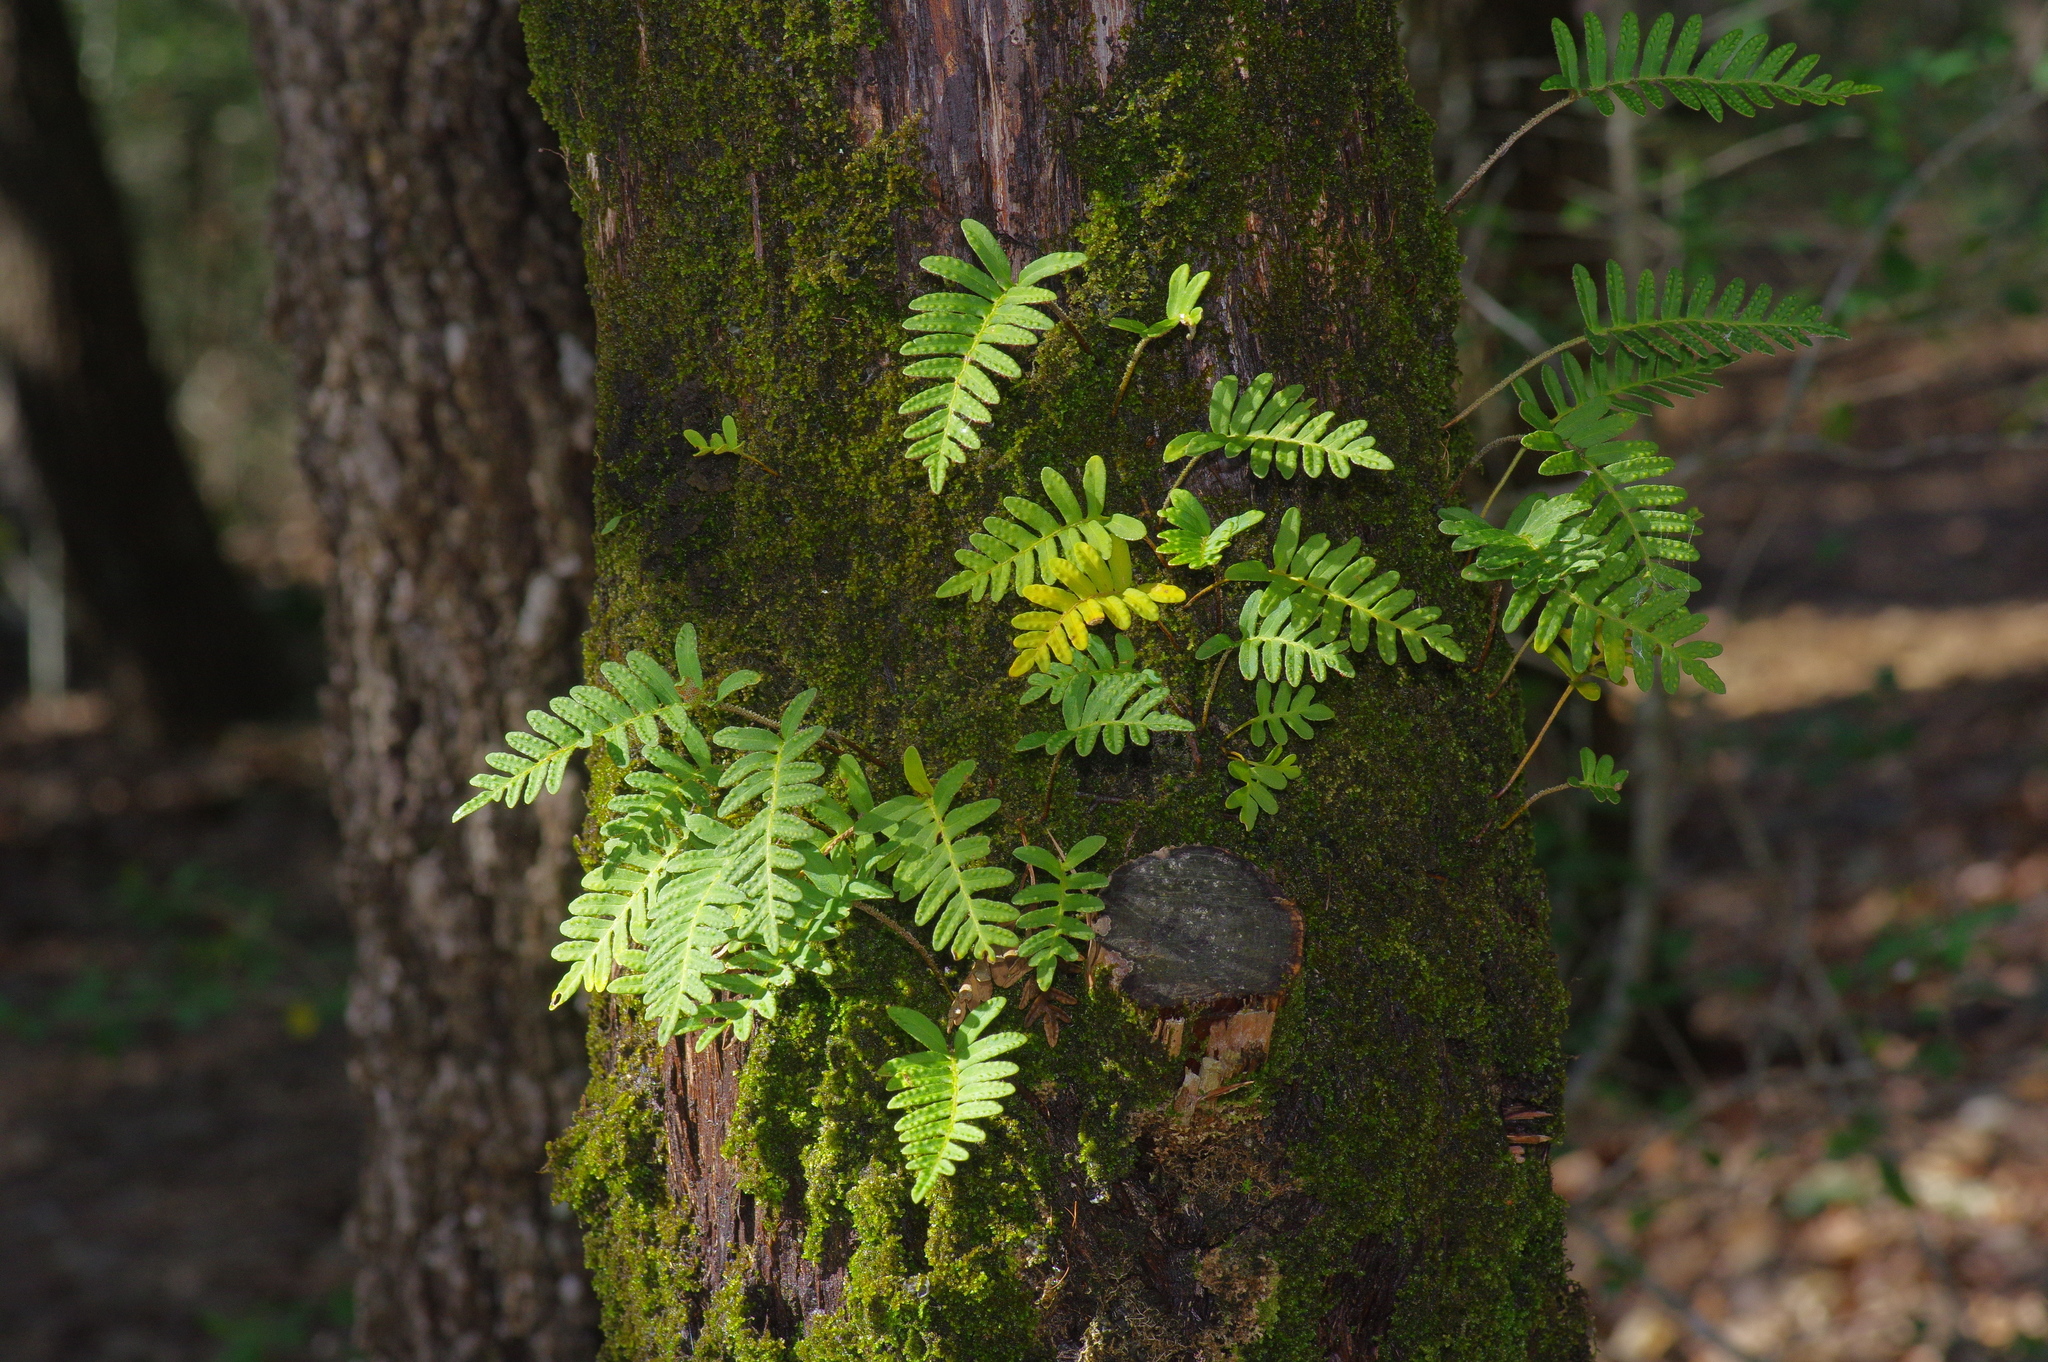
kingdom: Plantae
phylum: Tracheophyta
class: Polypodiopsida
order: Polypodiales
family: Polypodiaceae
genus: Pleopeltis
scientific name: Pleopeltis michauxiana
